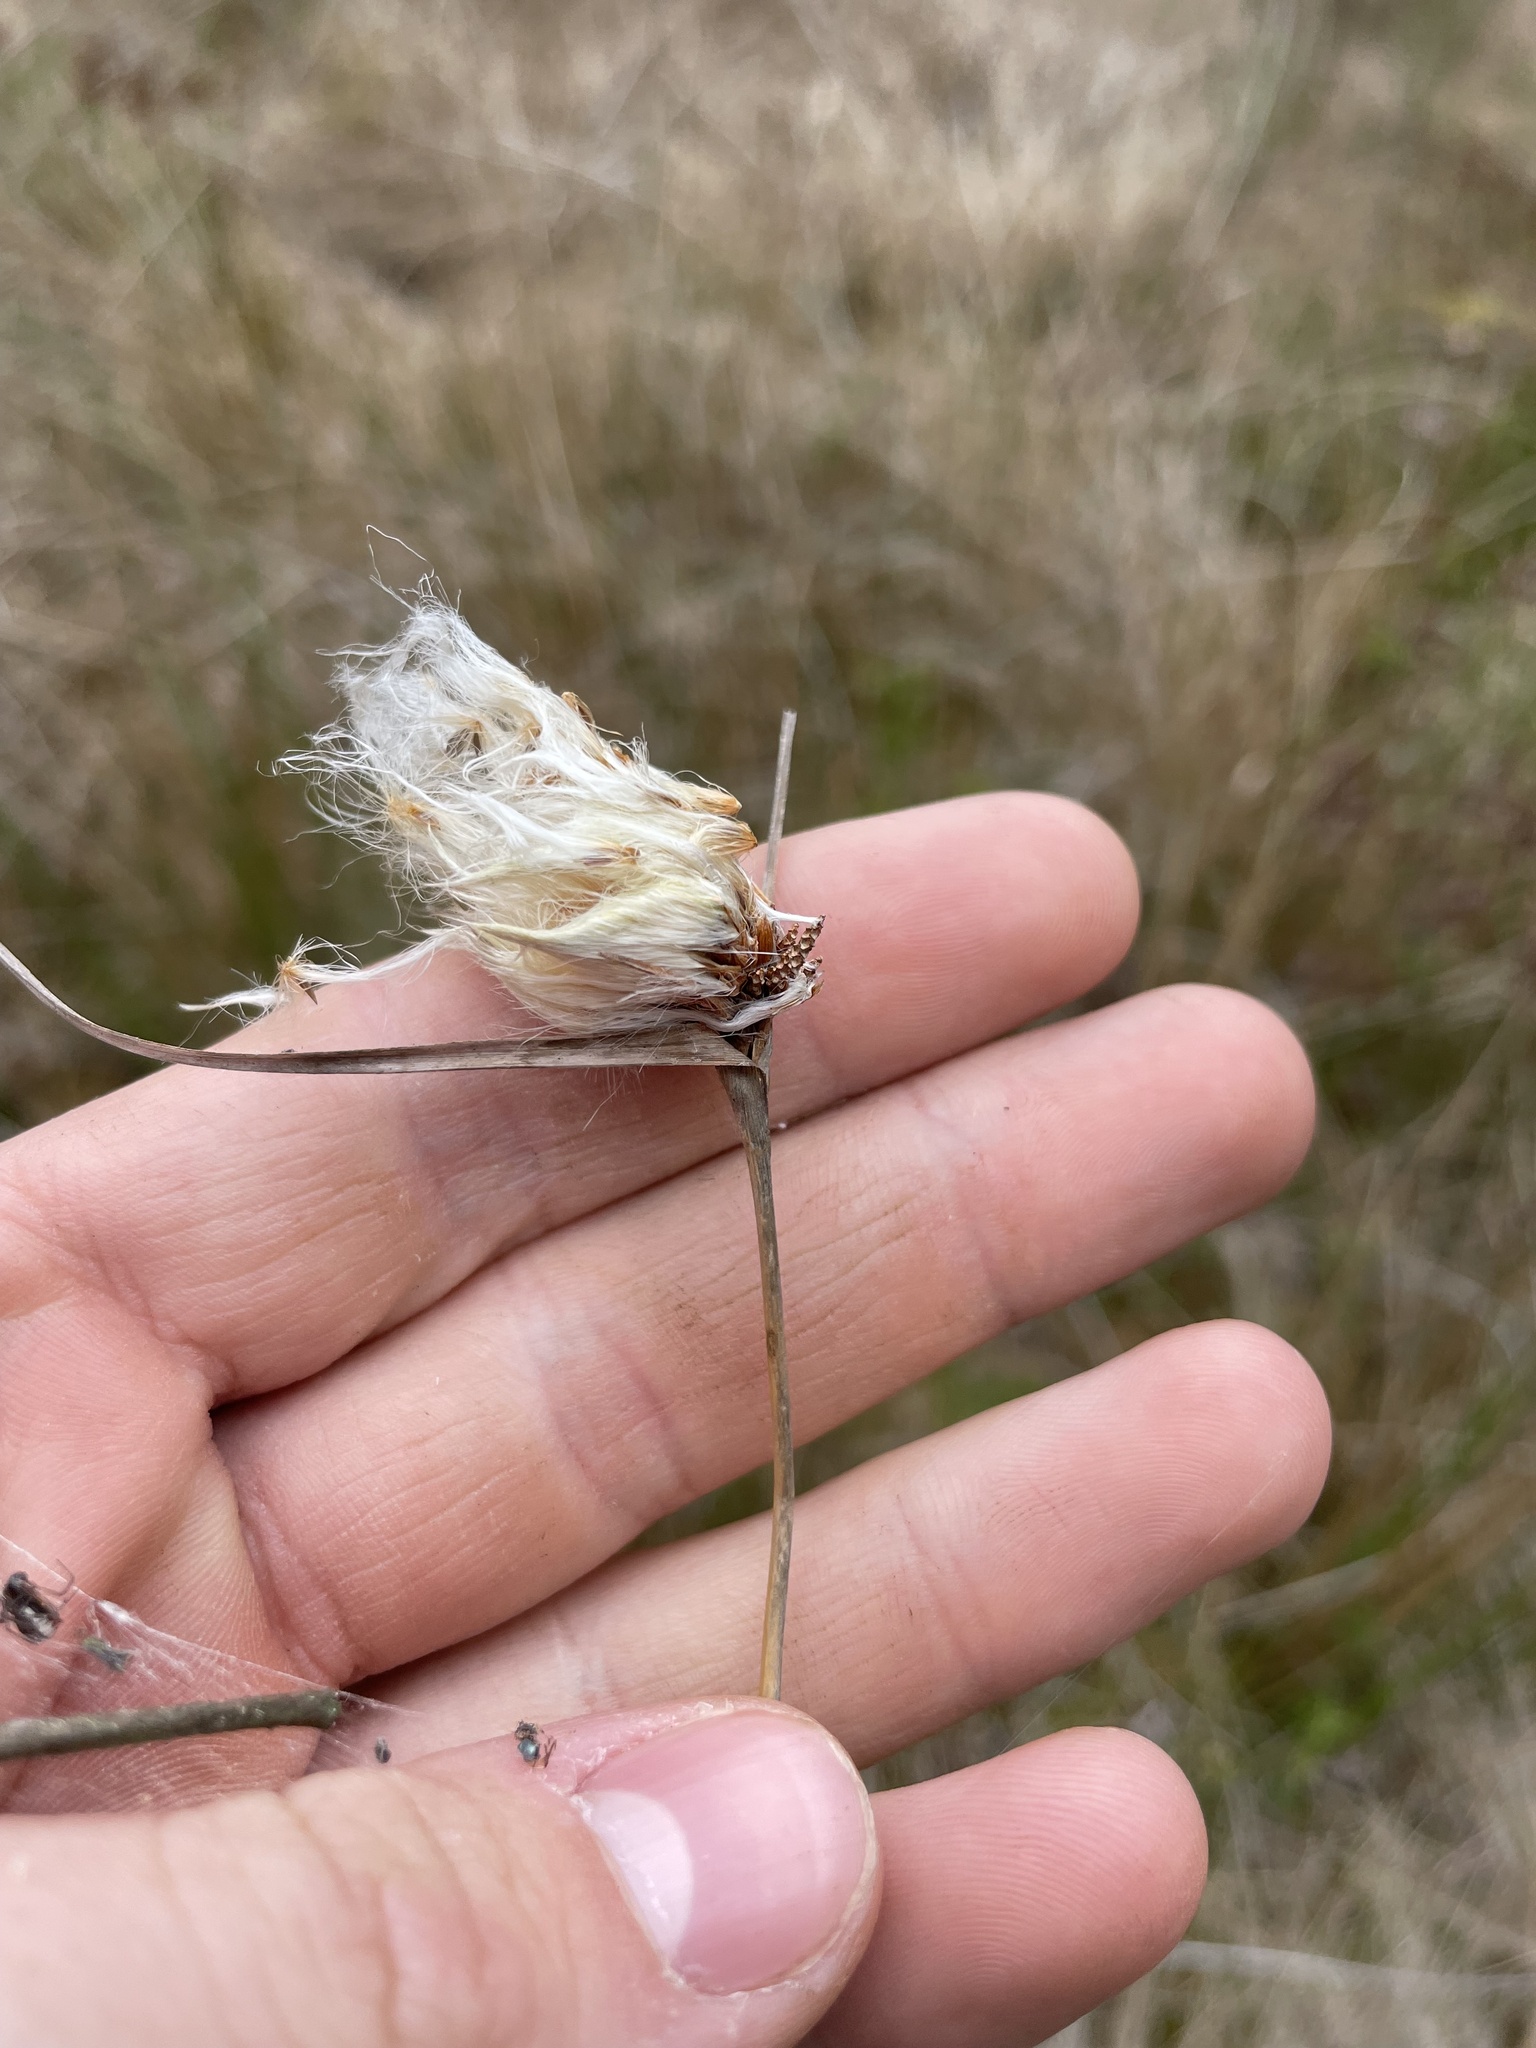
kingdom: Plantae
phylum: Tracheophyta
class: Liliopsida
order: Poales
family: Cyperaceae
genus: Eriophorum
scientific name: Eriophorum virginicum
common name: Tawny cottongrass
